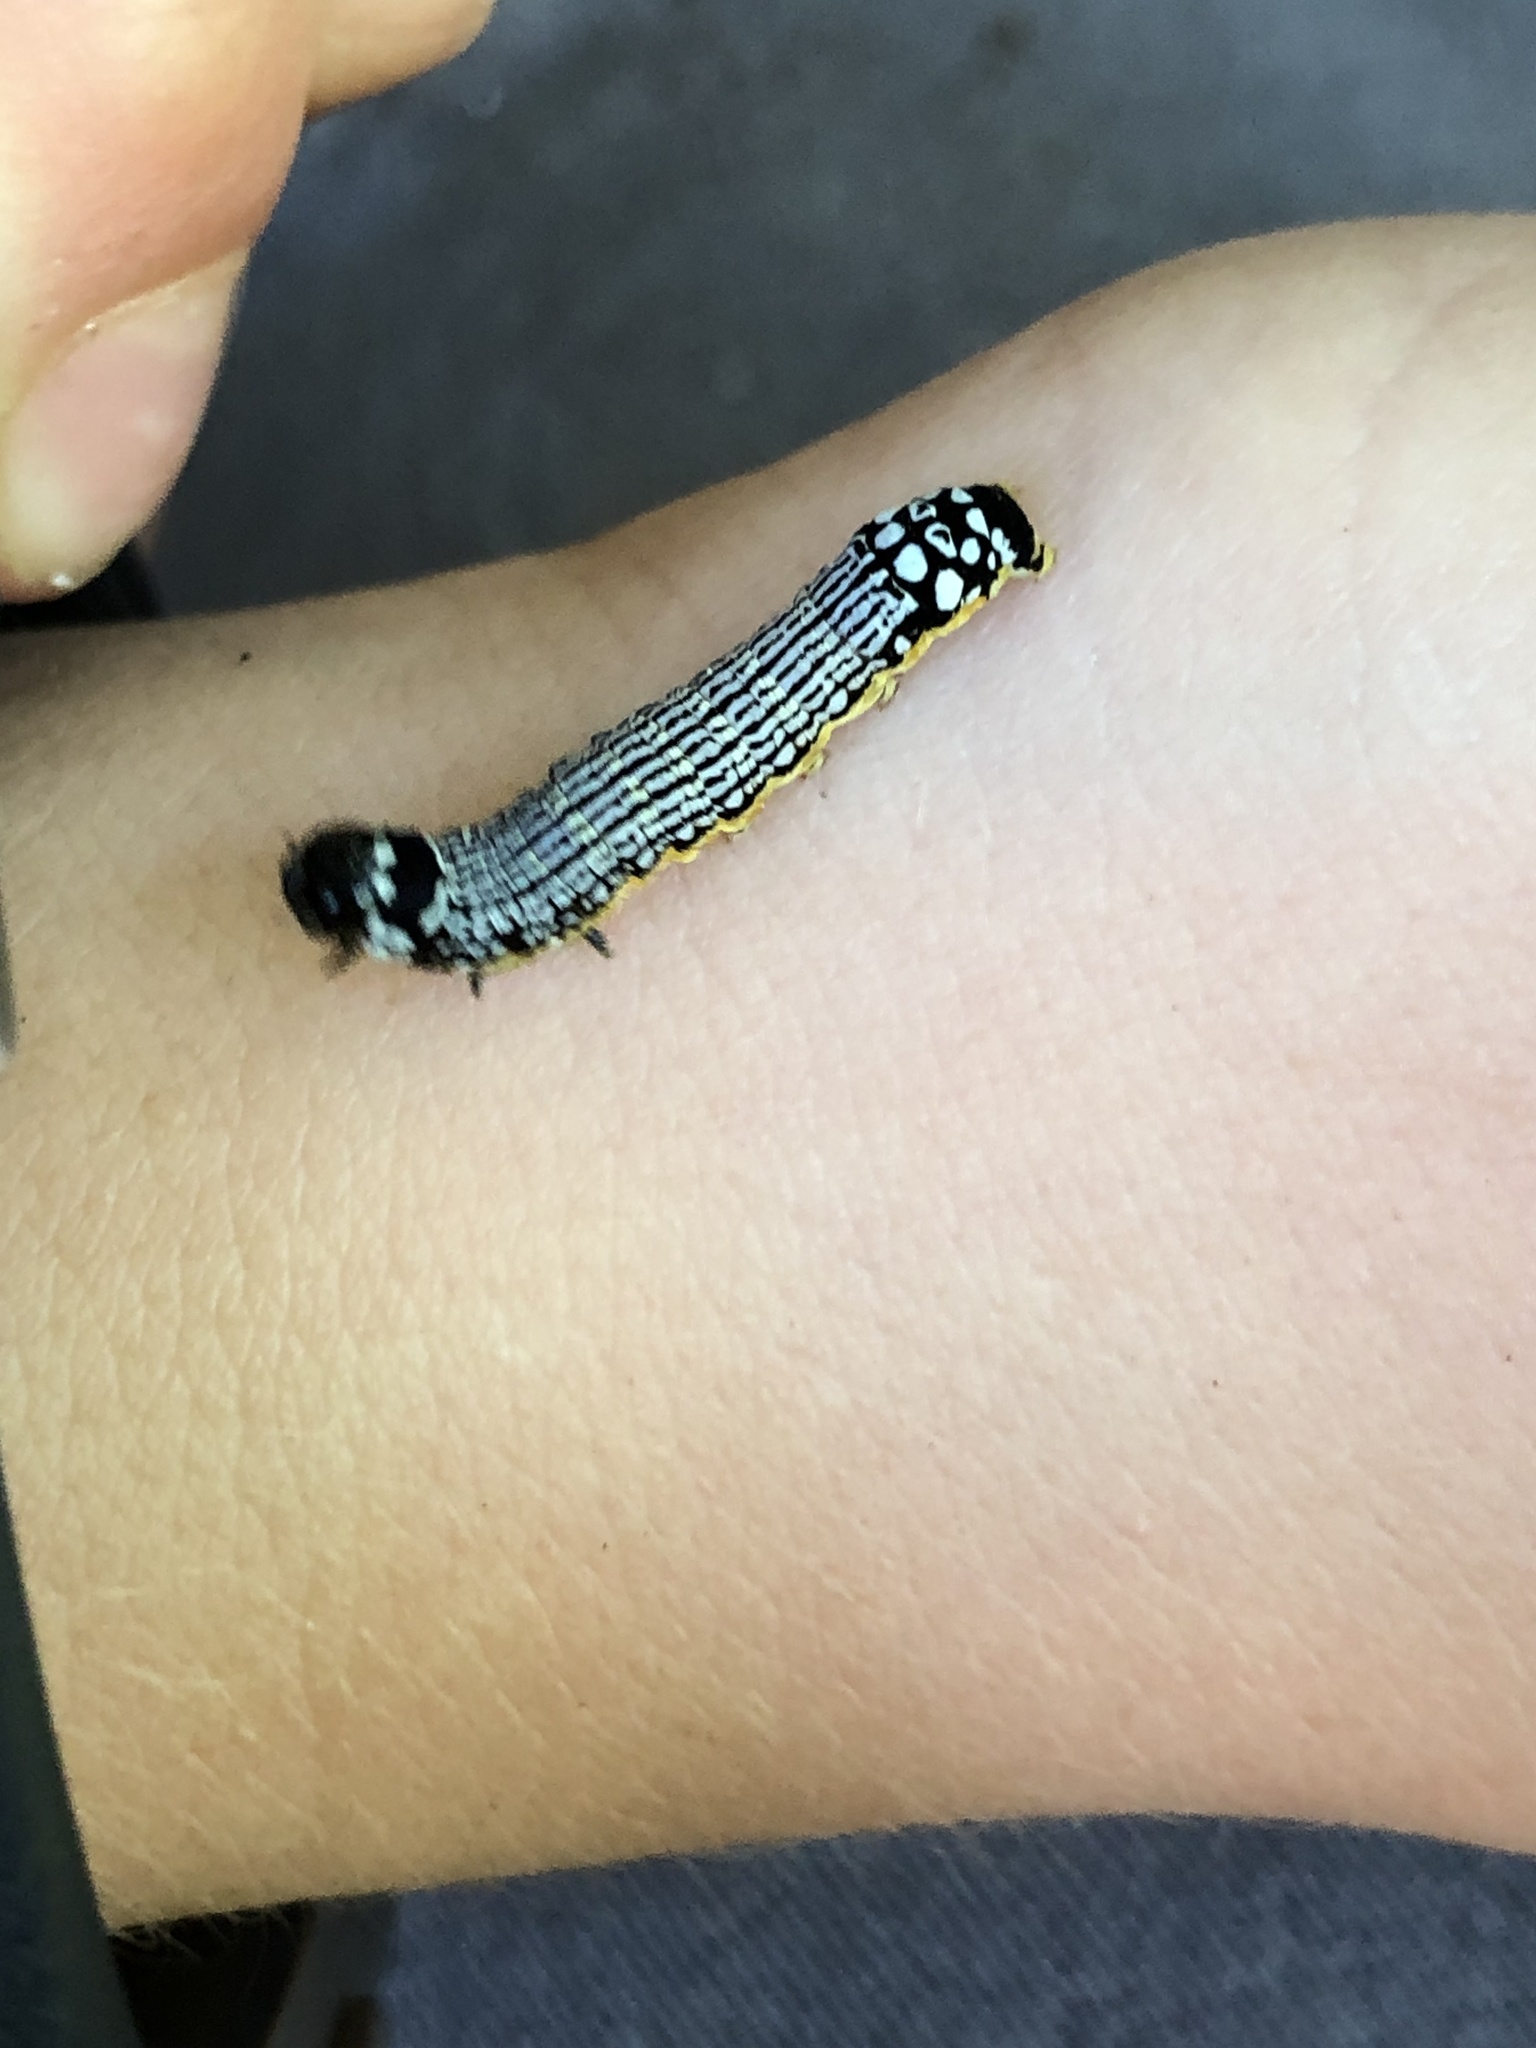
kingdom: Animalia
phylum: Arthropoda
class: Insecta
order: Lepidoptera
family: Noctuidae
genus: Phosphila
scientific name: Phosphila turbulenta
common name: Turbulent phosphila moth
